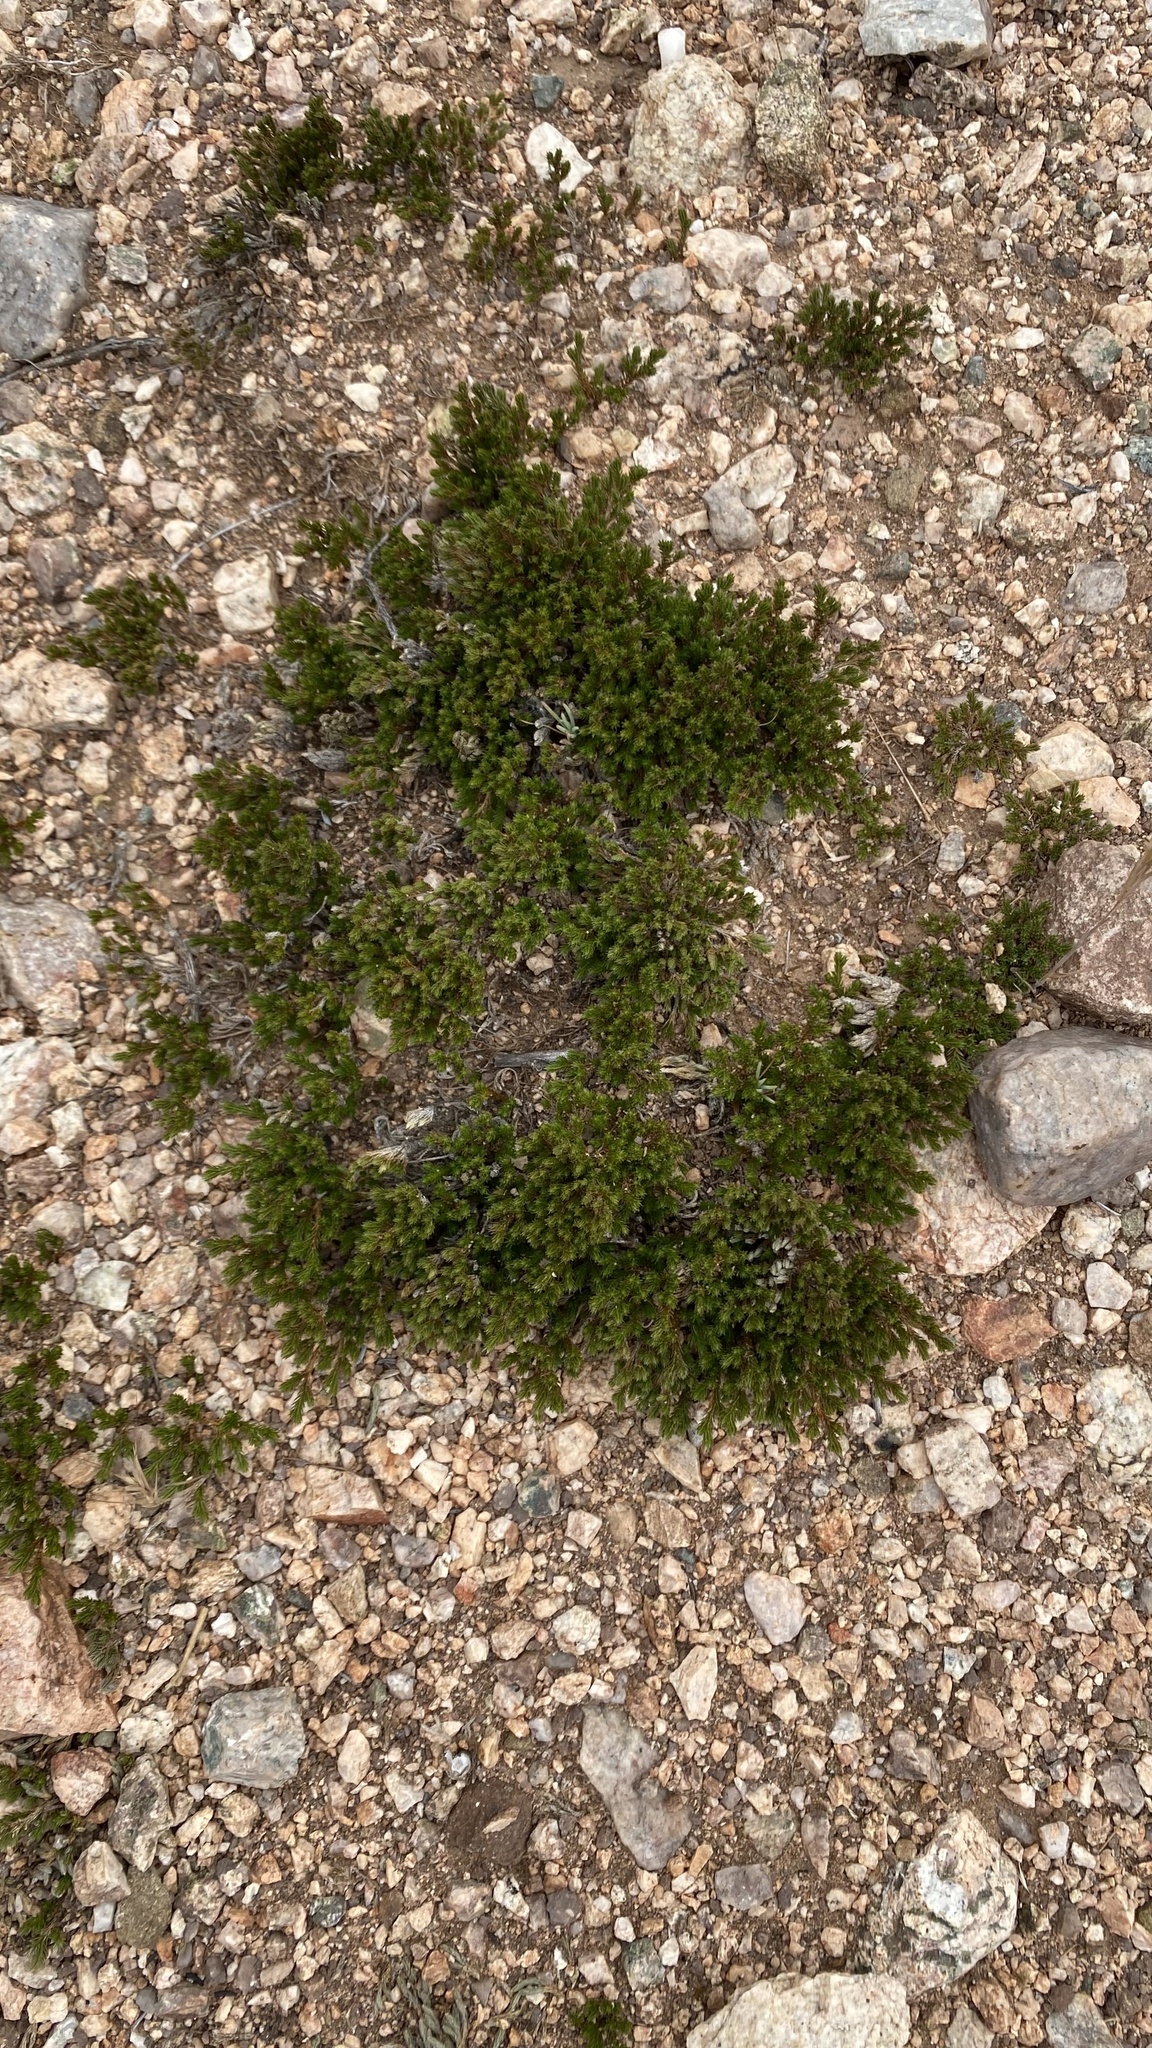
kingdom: Plantae
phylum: Tracheophyta
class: Lycopodiopsida
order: Selaginellales
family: Selaginellaceae
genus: Selaginella
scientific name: Selaginella bigelovii
